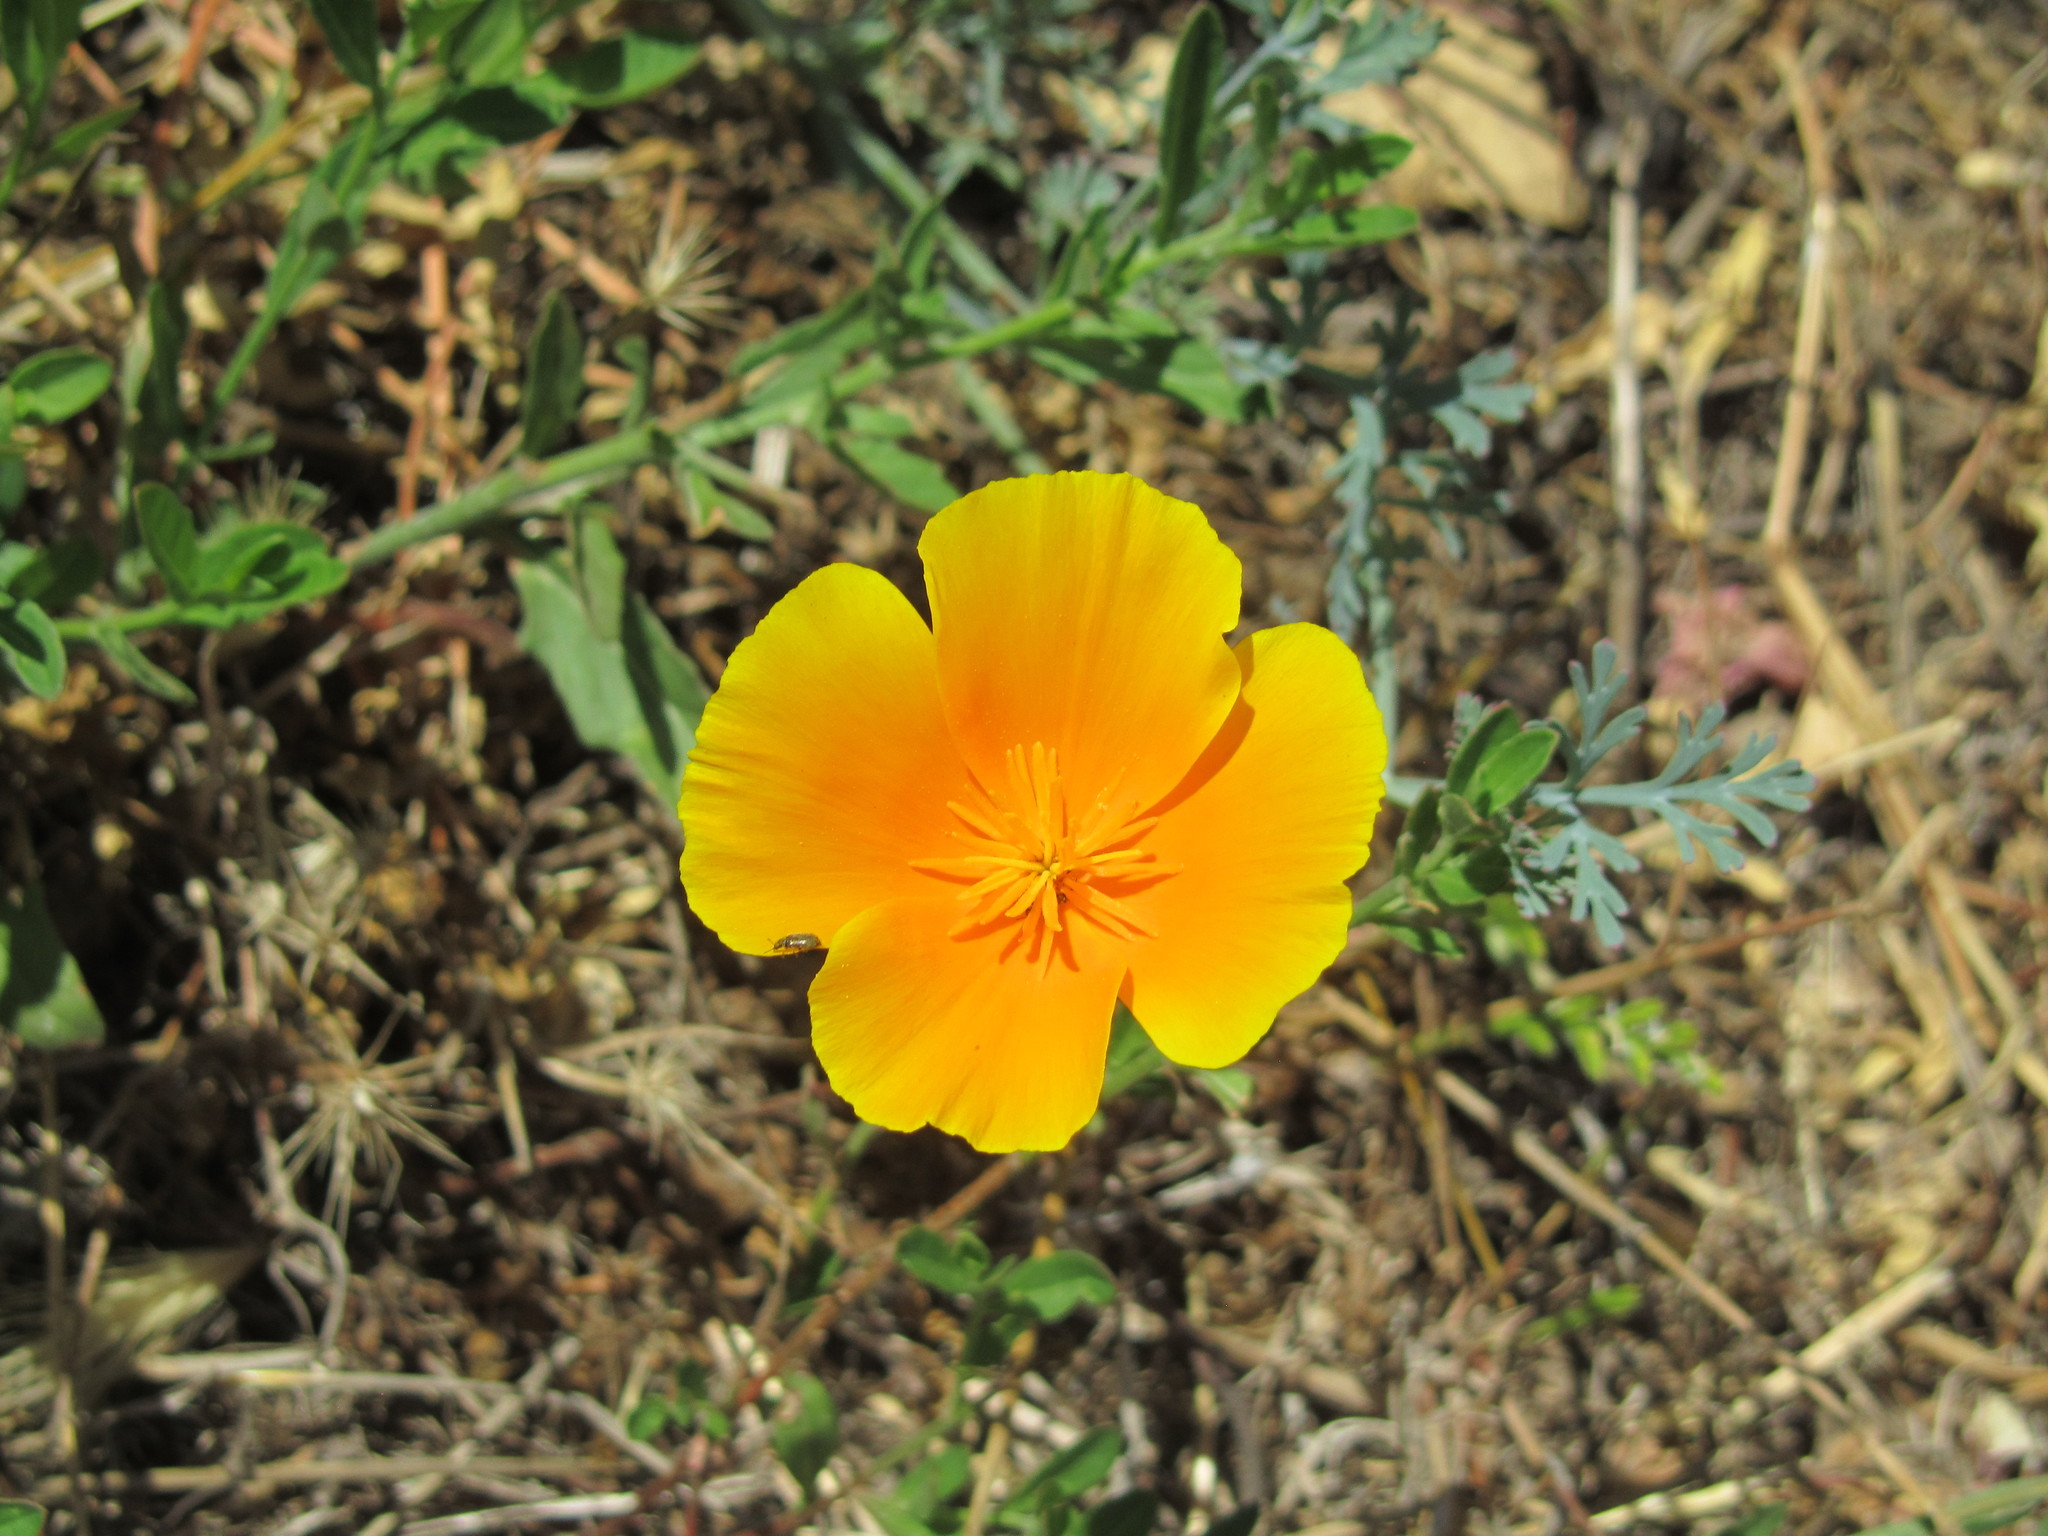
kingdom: Plantae
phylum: Tracheophyta
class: Magnoliopsida
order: Ranunculales
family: Papaveraceae
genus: Eschscholzia
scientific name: Eschscholzia
